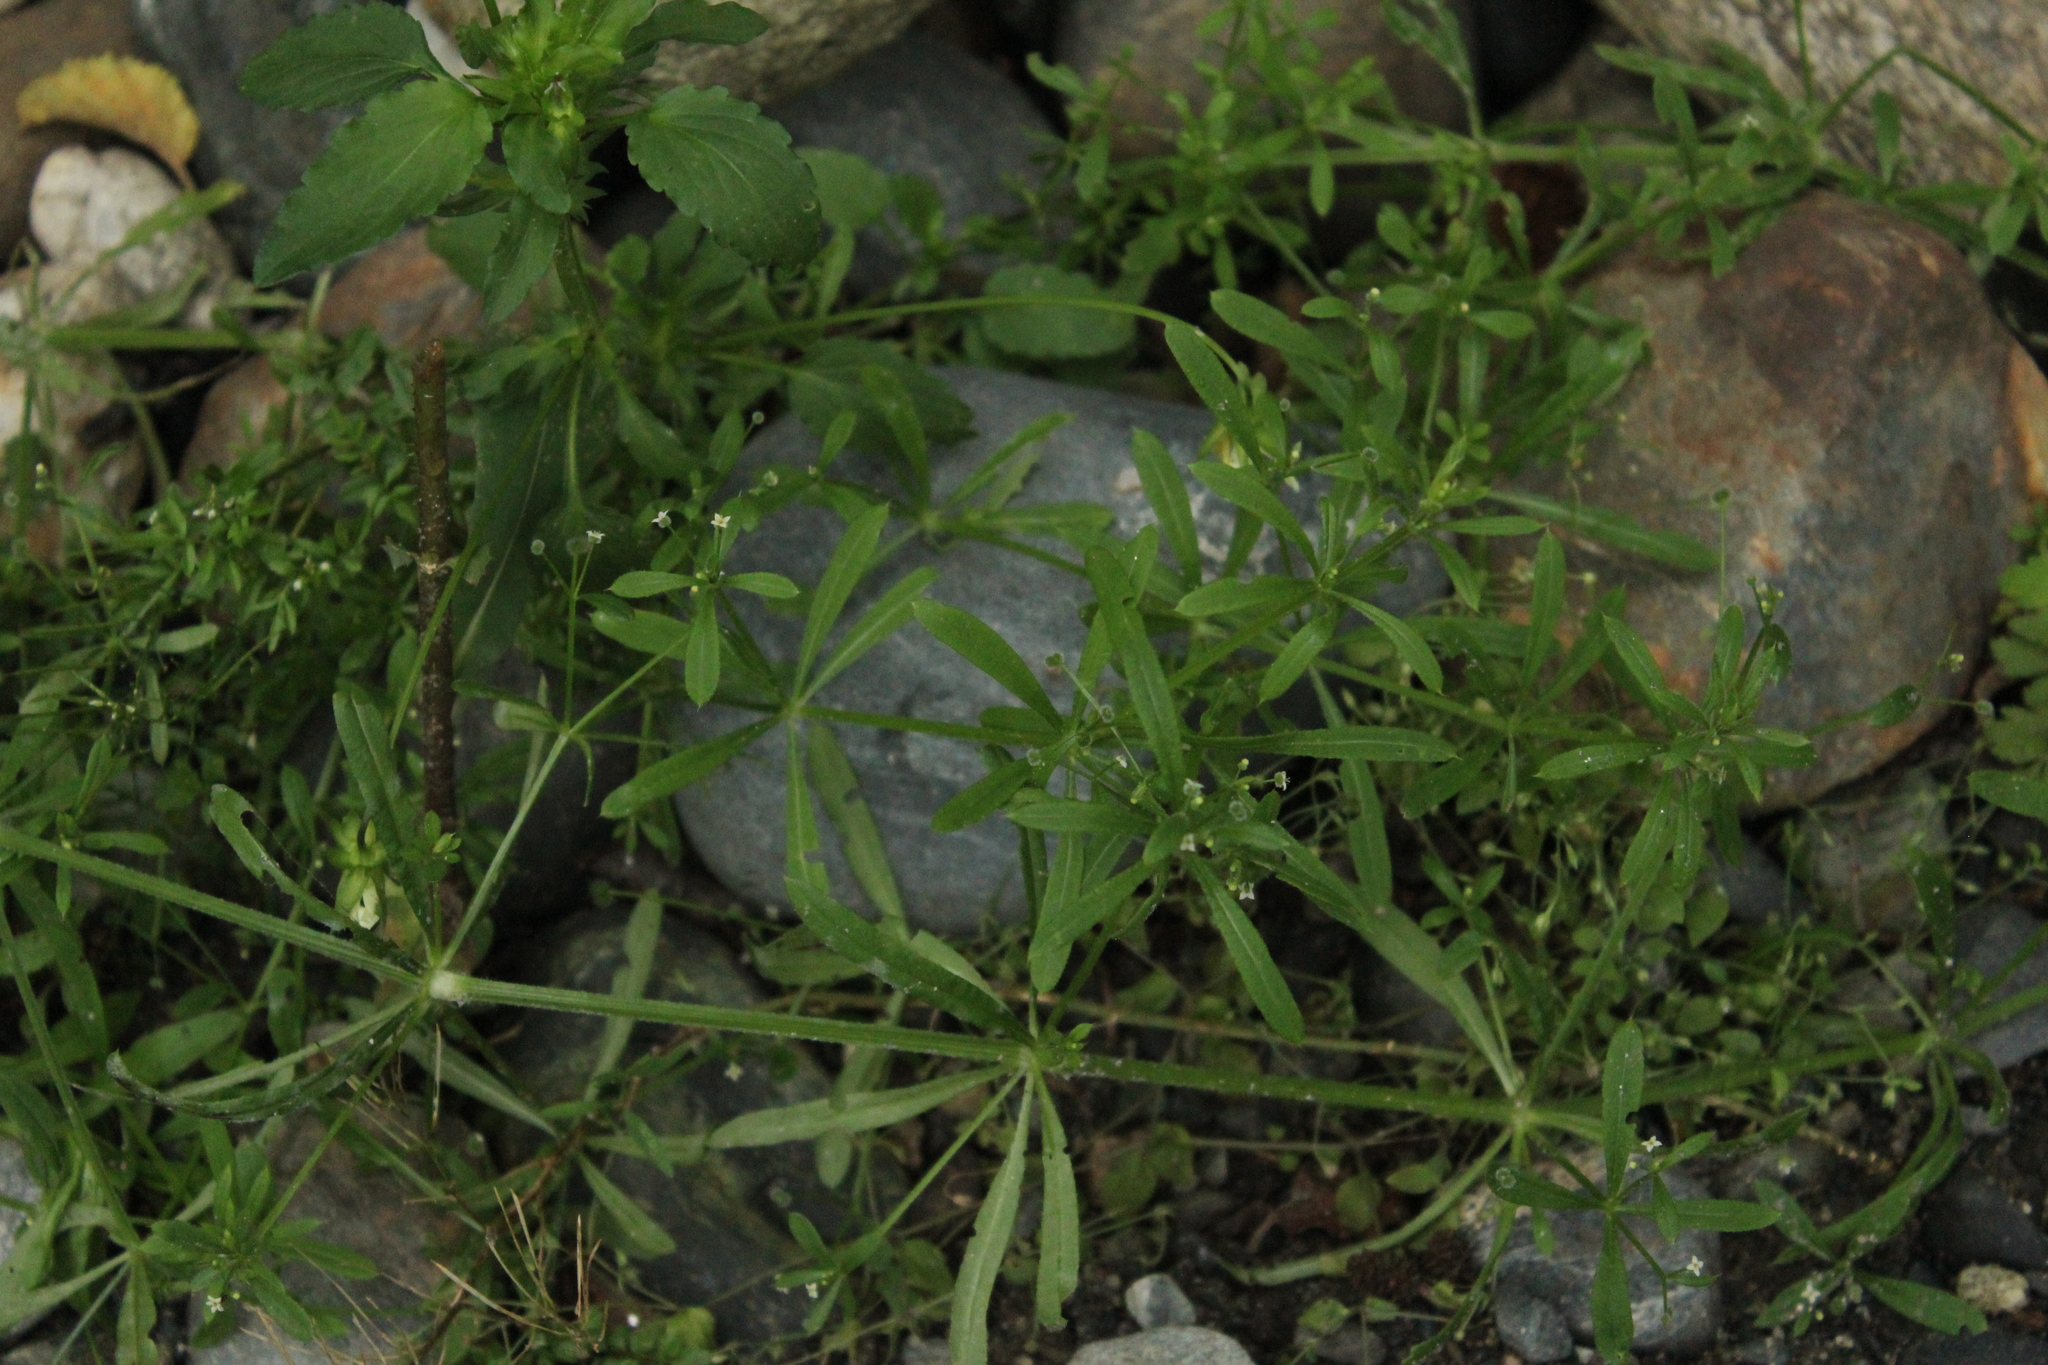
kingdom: Plantae
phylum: Tracheophyta
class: Magnoliopsida
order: Gentianales
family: Rubiaceae
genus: Galium
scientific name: Galium aparine
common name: Cleavers
